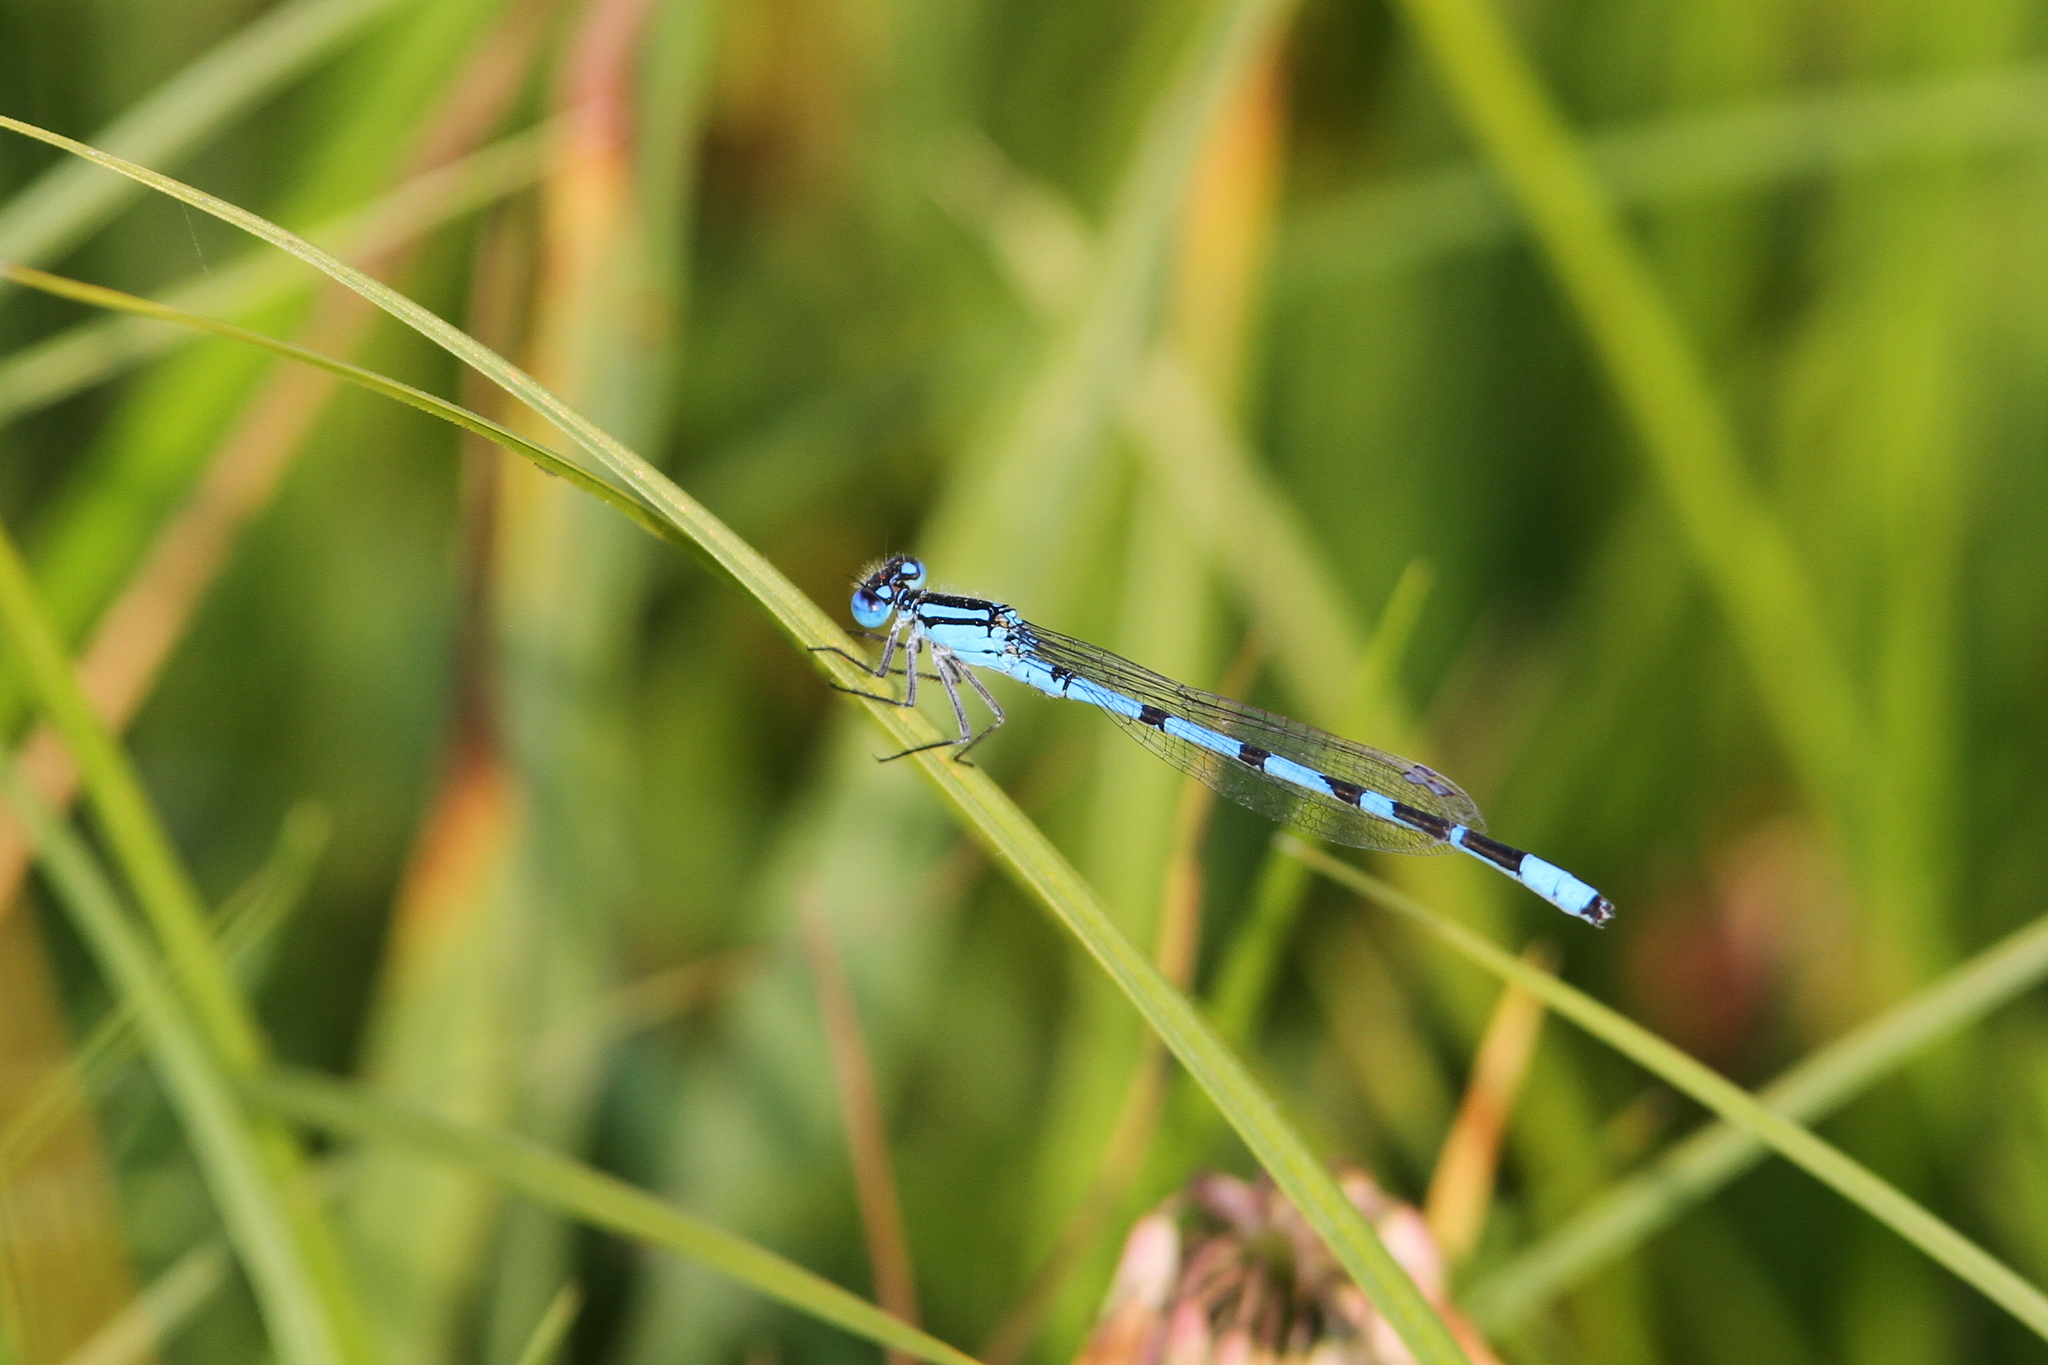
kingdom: Animalia
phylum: Arthropoda
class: Insecta
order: Odonata
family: Coenagrionidae
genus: Enallagma
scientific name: Enallagma cyathigerum
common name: Common blue damselfly
